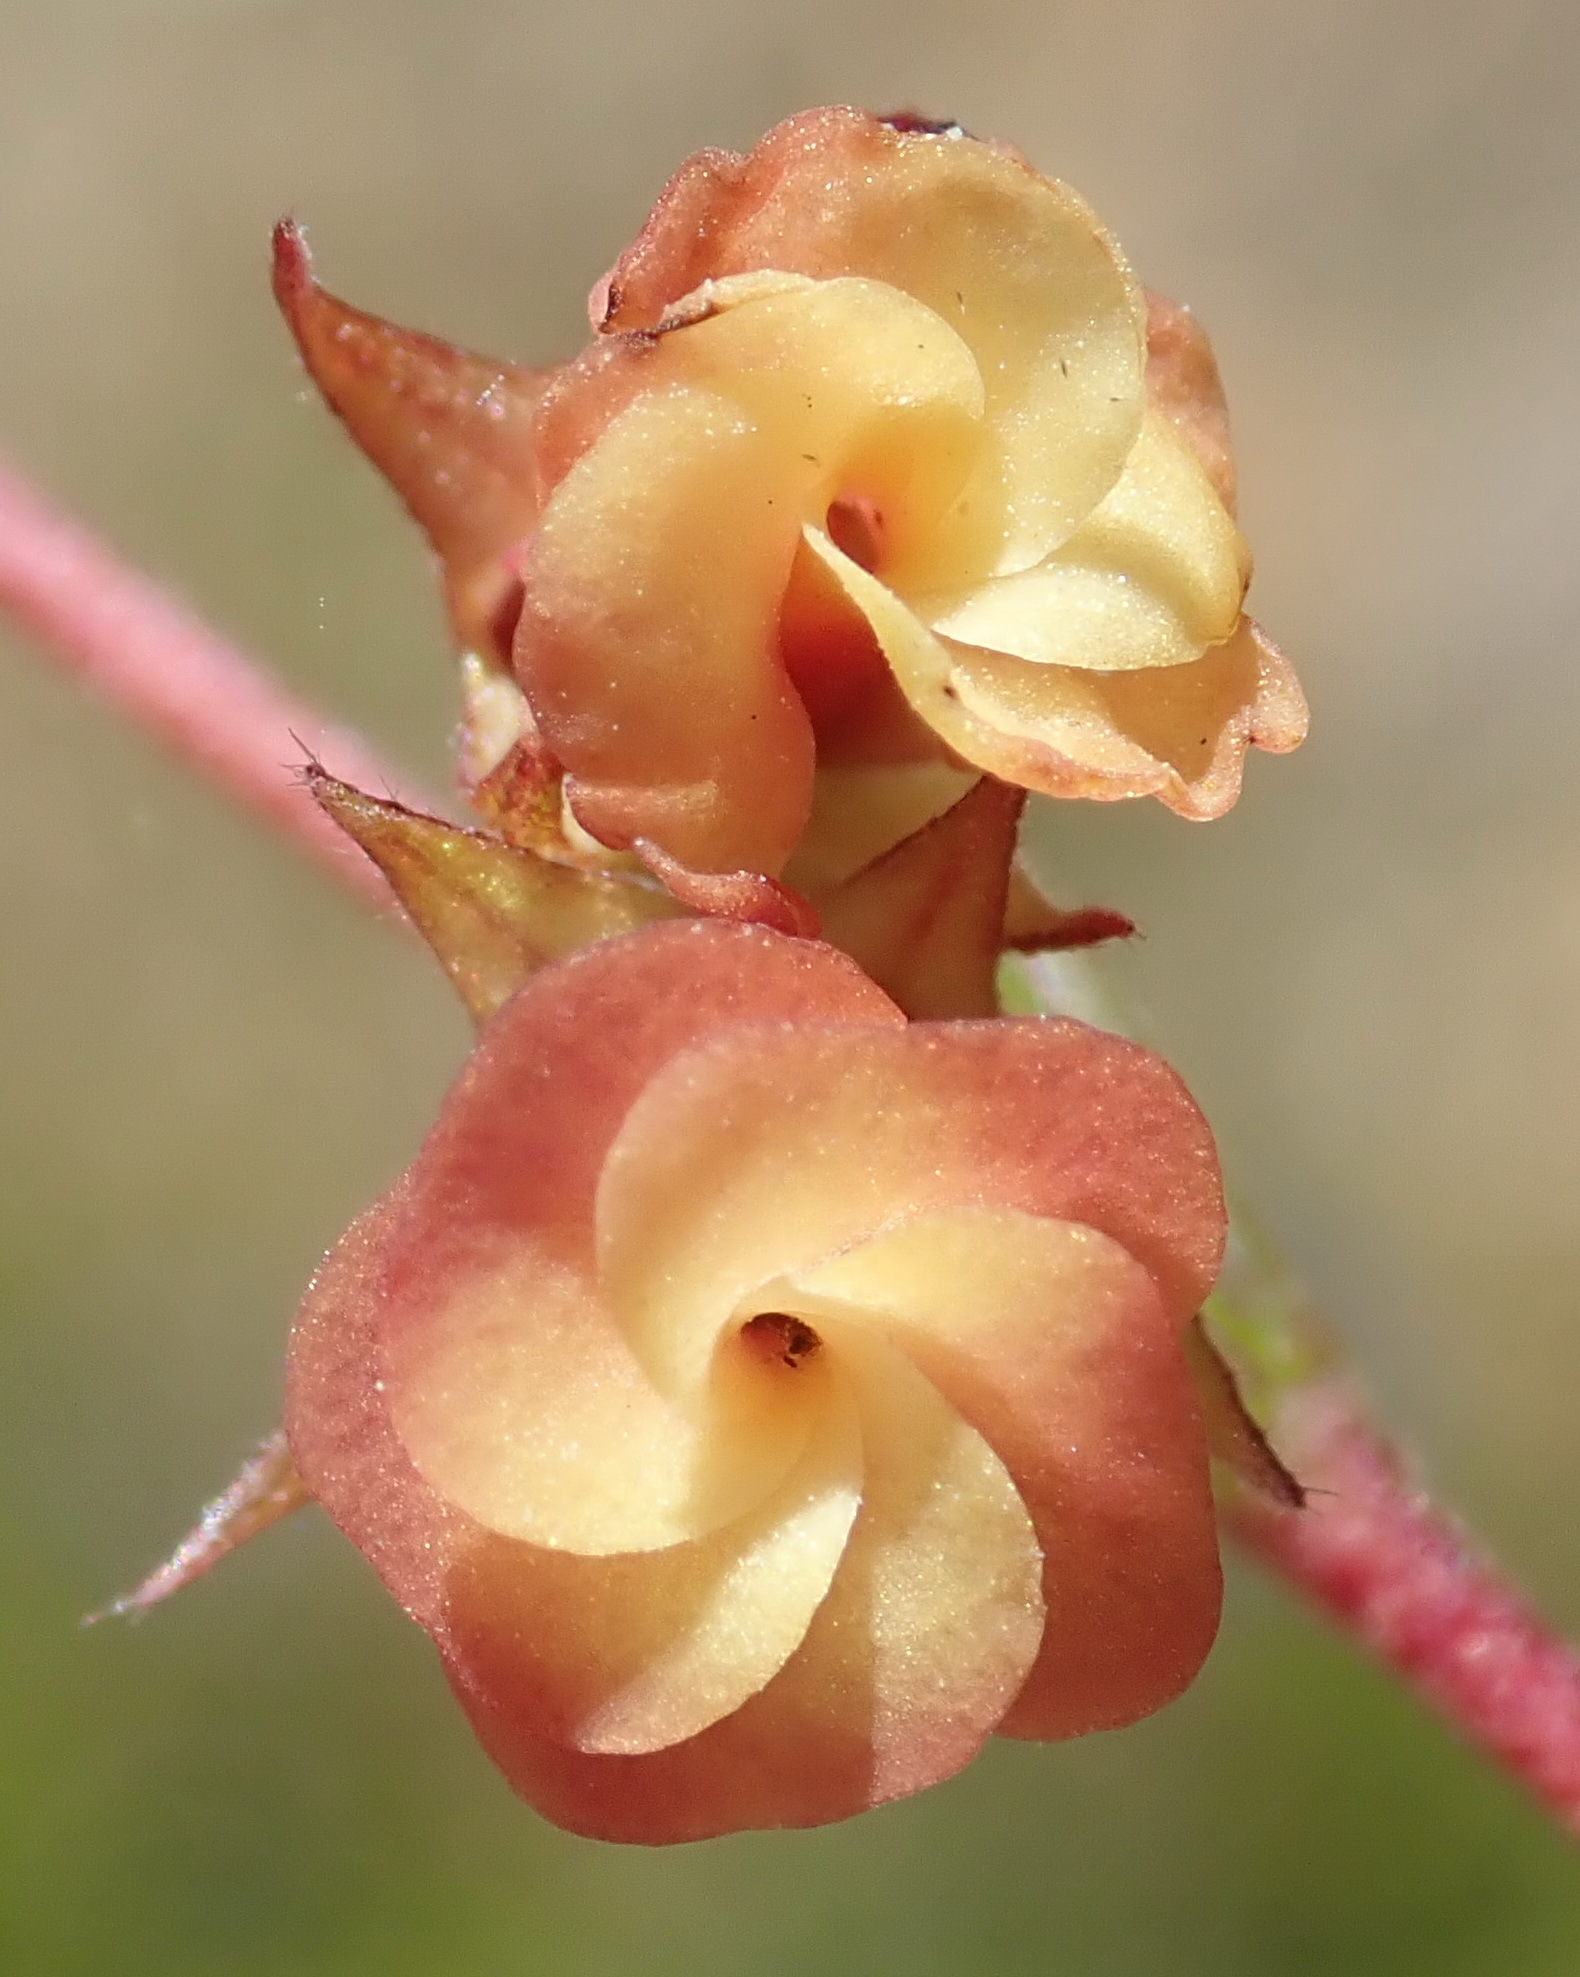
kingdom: Plantae
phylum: Tracheophyta
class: Magnoliopsida
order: Malvales
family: Malvaceae
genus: Hermannia
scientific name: Hermannia filifolia
